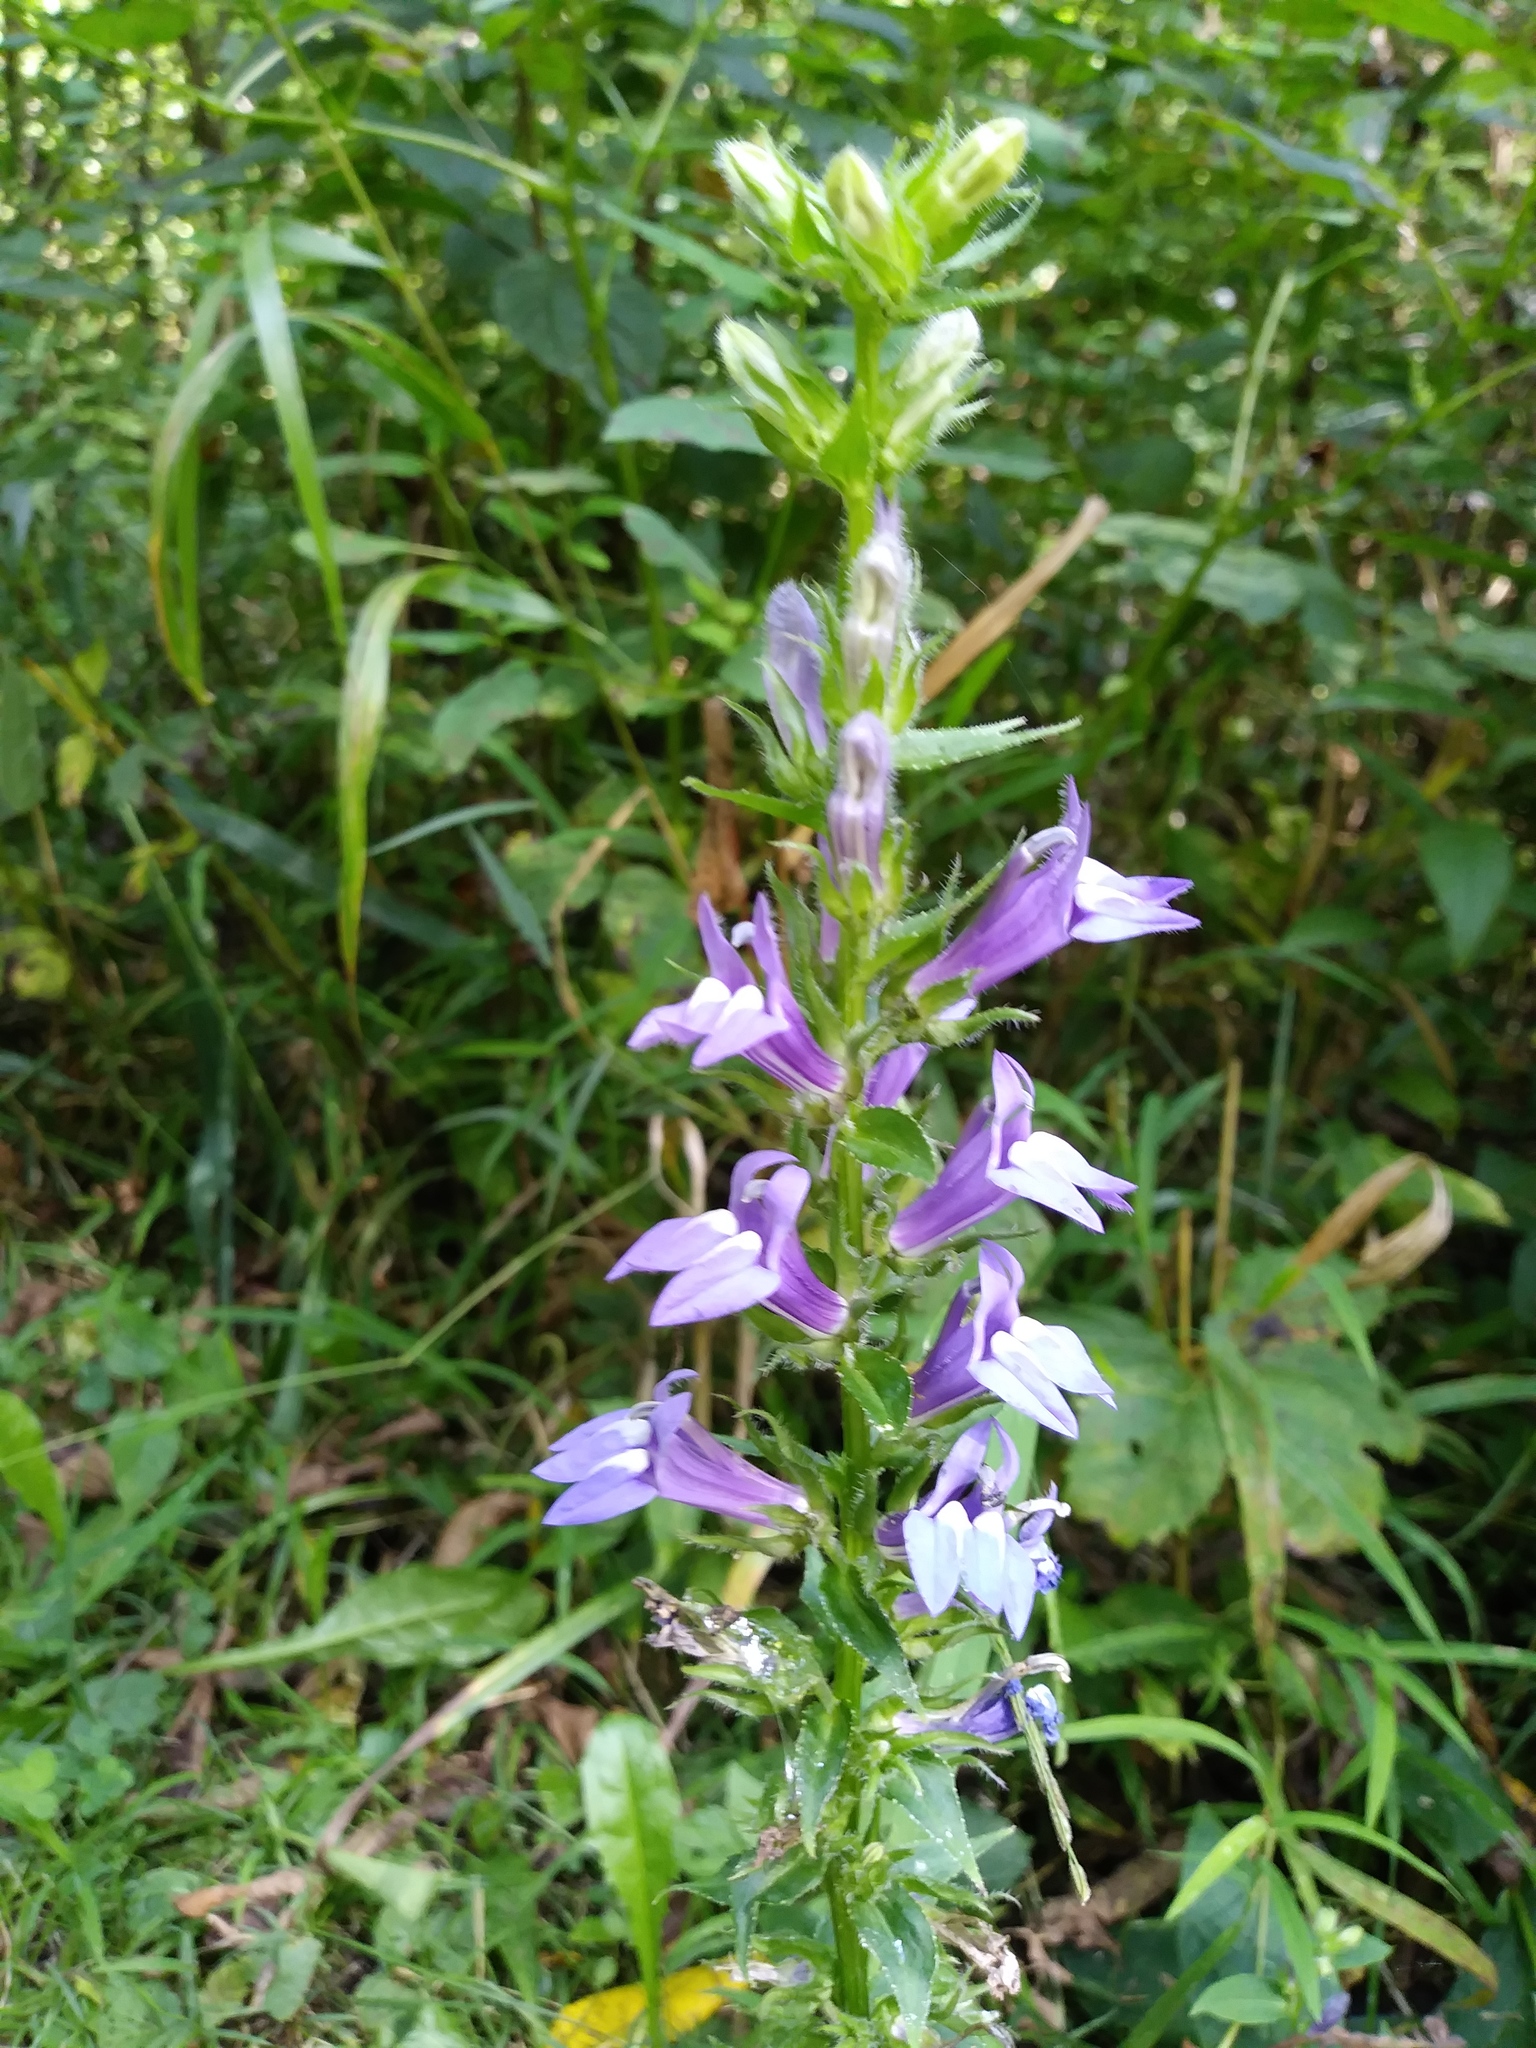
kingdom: Plantae
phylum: Tracheophyta
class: Magnoliopsida
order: Asterales
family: Campanulaceae
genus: Lobelia
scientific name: Lobelia siphilitica
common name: Great lobelia
